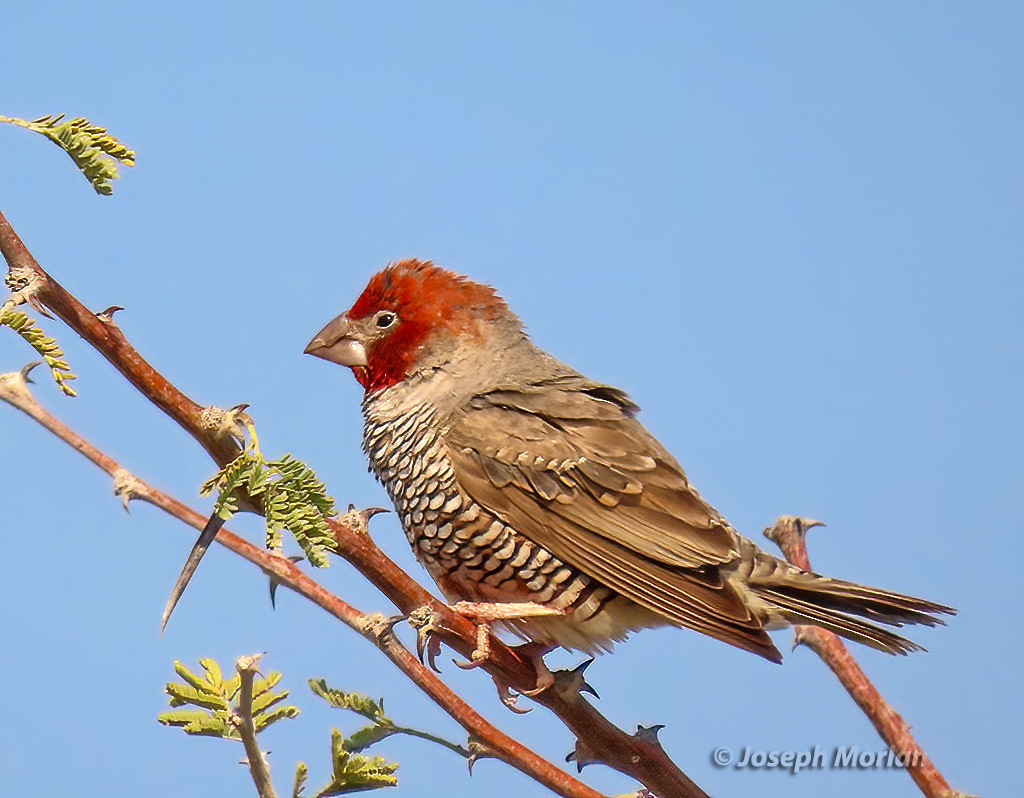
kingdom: Animalia
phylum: Chordata
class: Aves
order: Passeriformes
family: Estrildidae
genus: Amadina
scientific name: Amadina erythrocephala
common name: Red-headed finch
